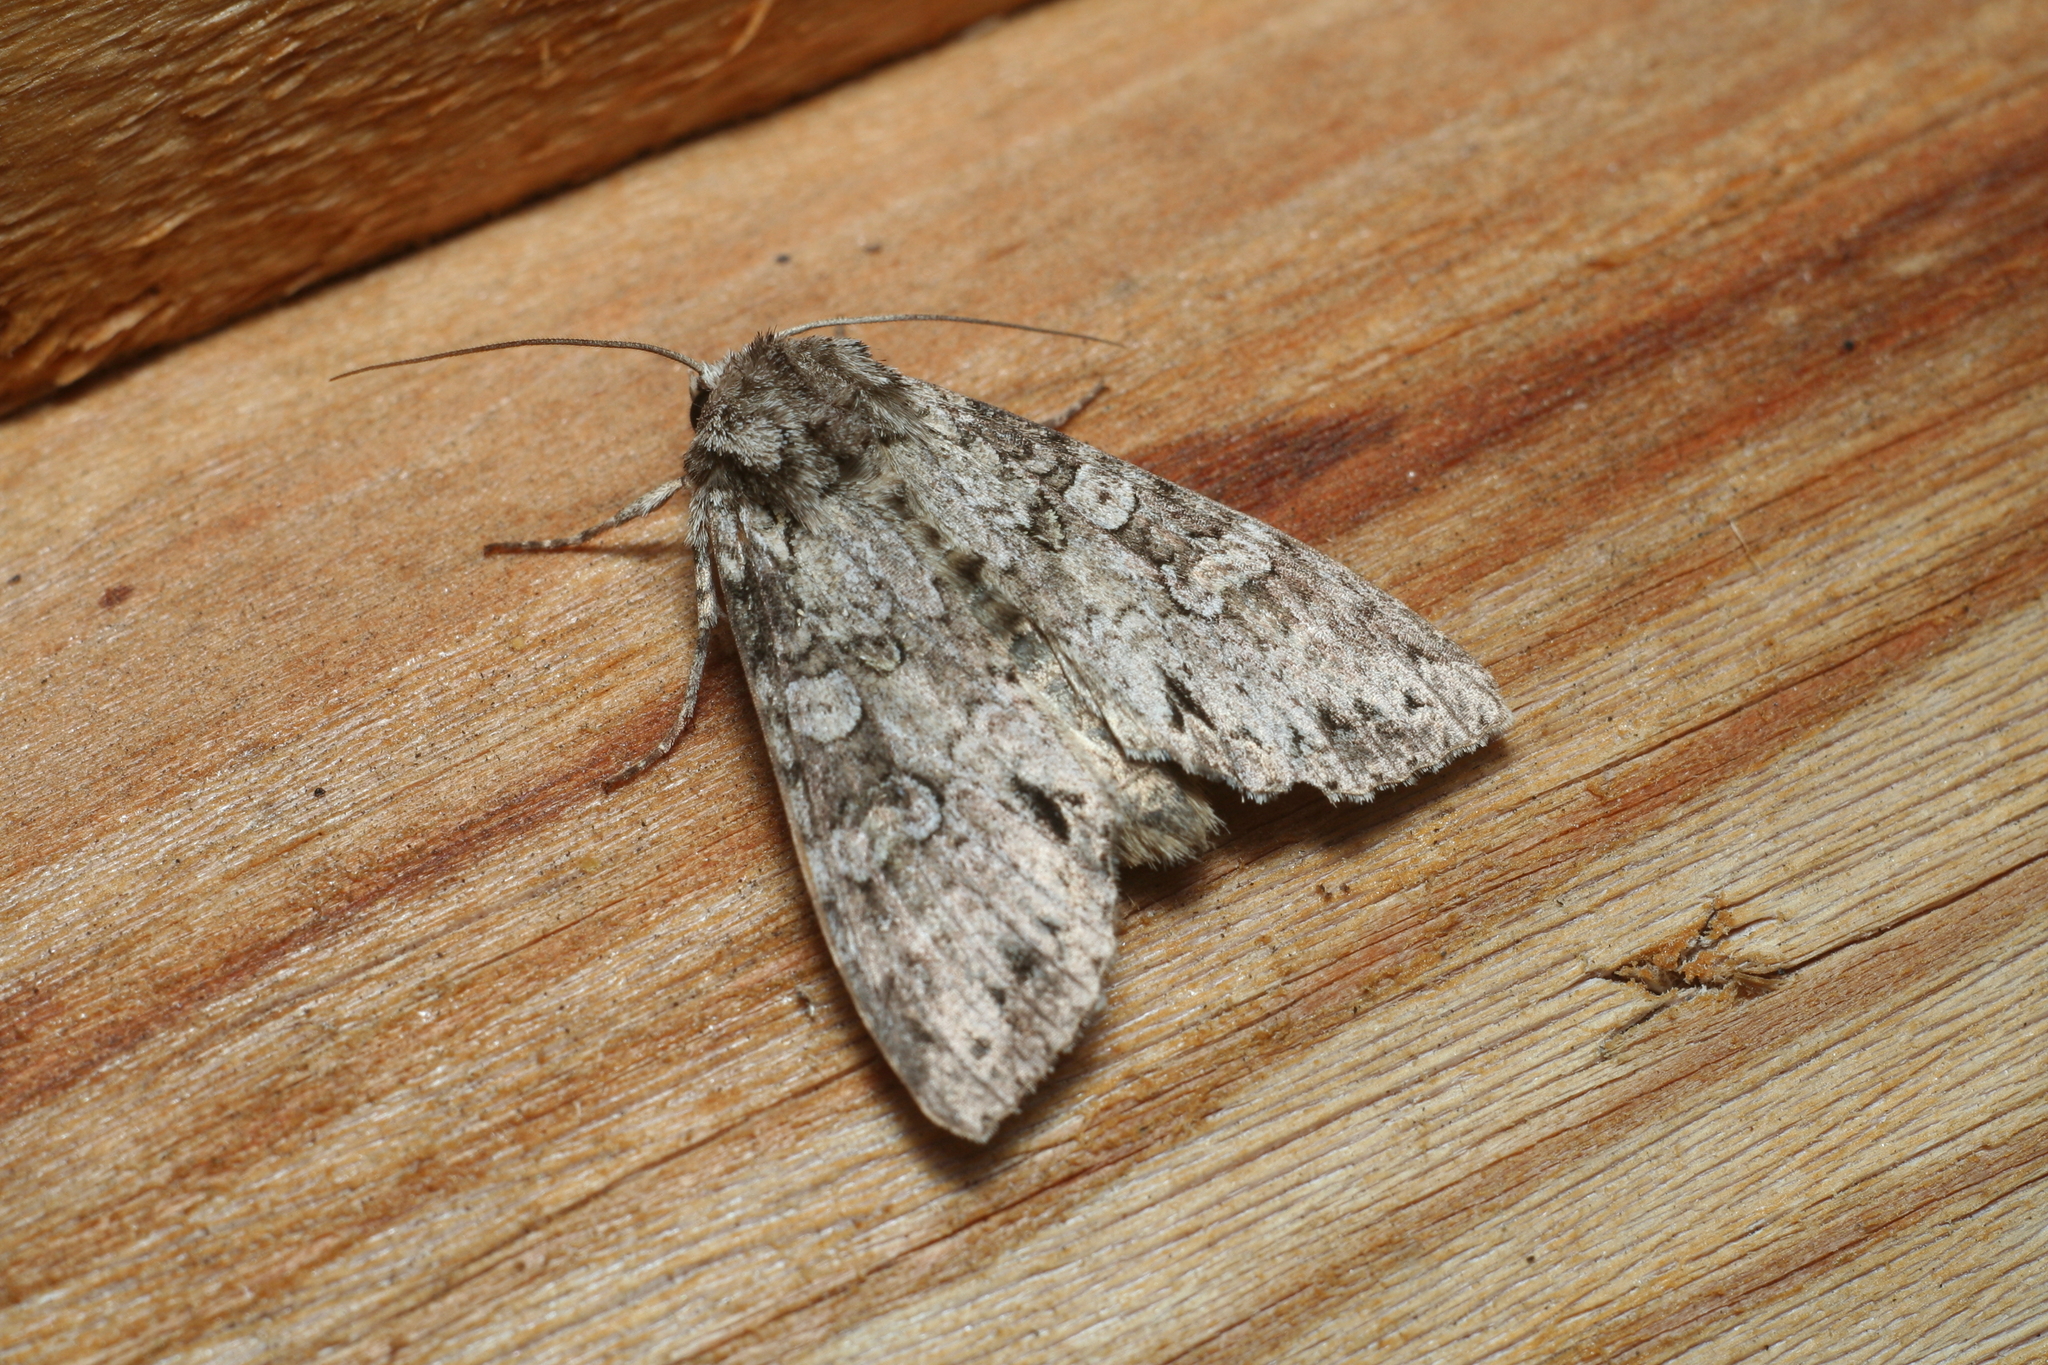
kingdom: Animalia
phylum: Arthropoda
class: Insecta
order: Lepidoptera
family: Noctuidae
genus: Polia
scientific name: Polia nebulosa
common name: Grey arches
